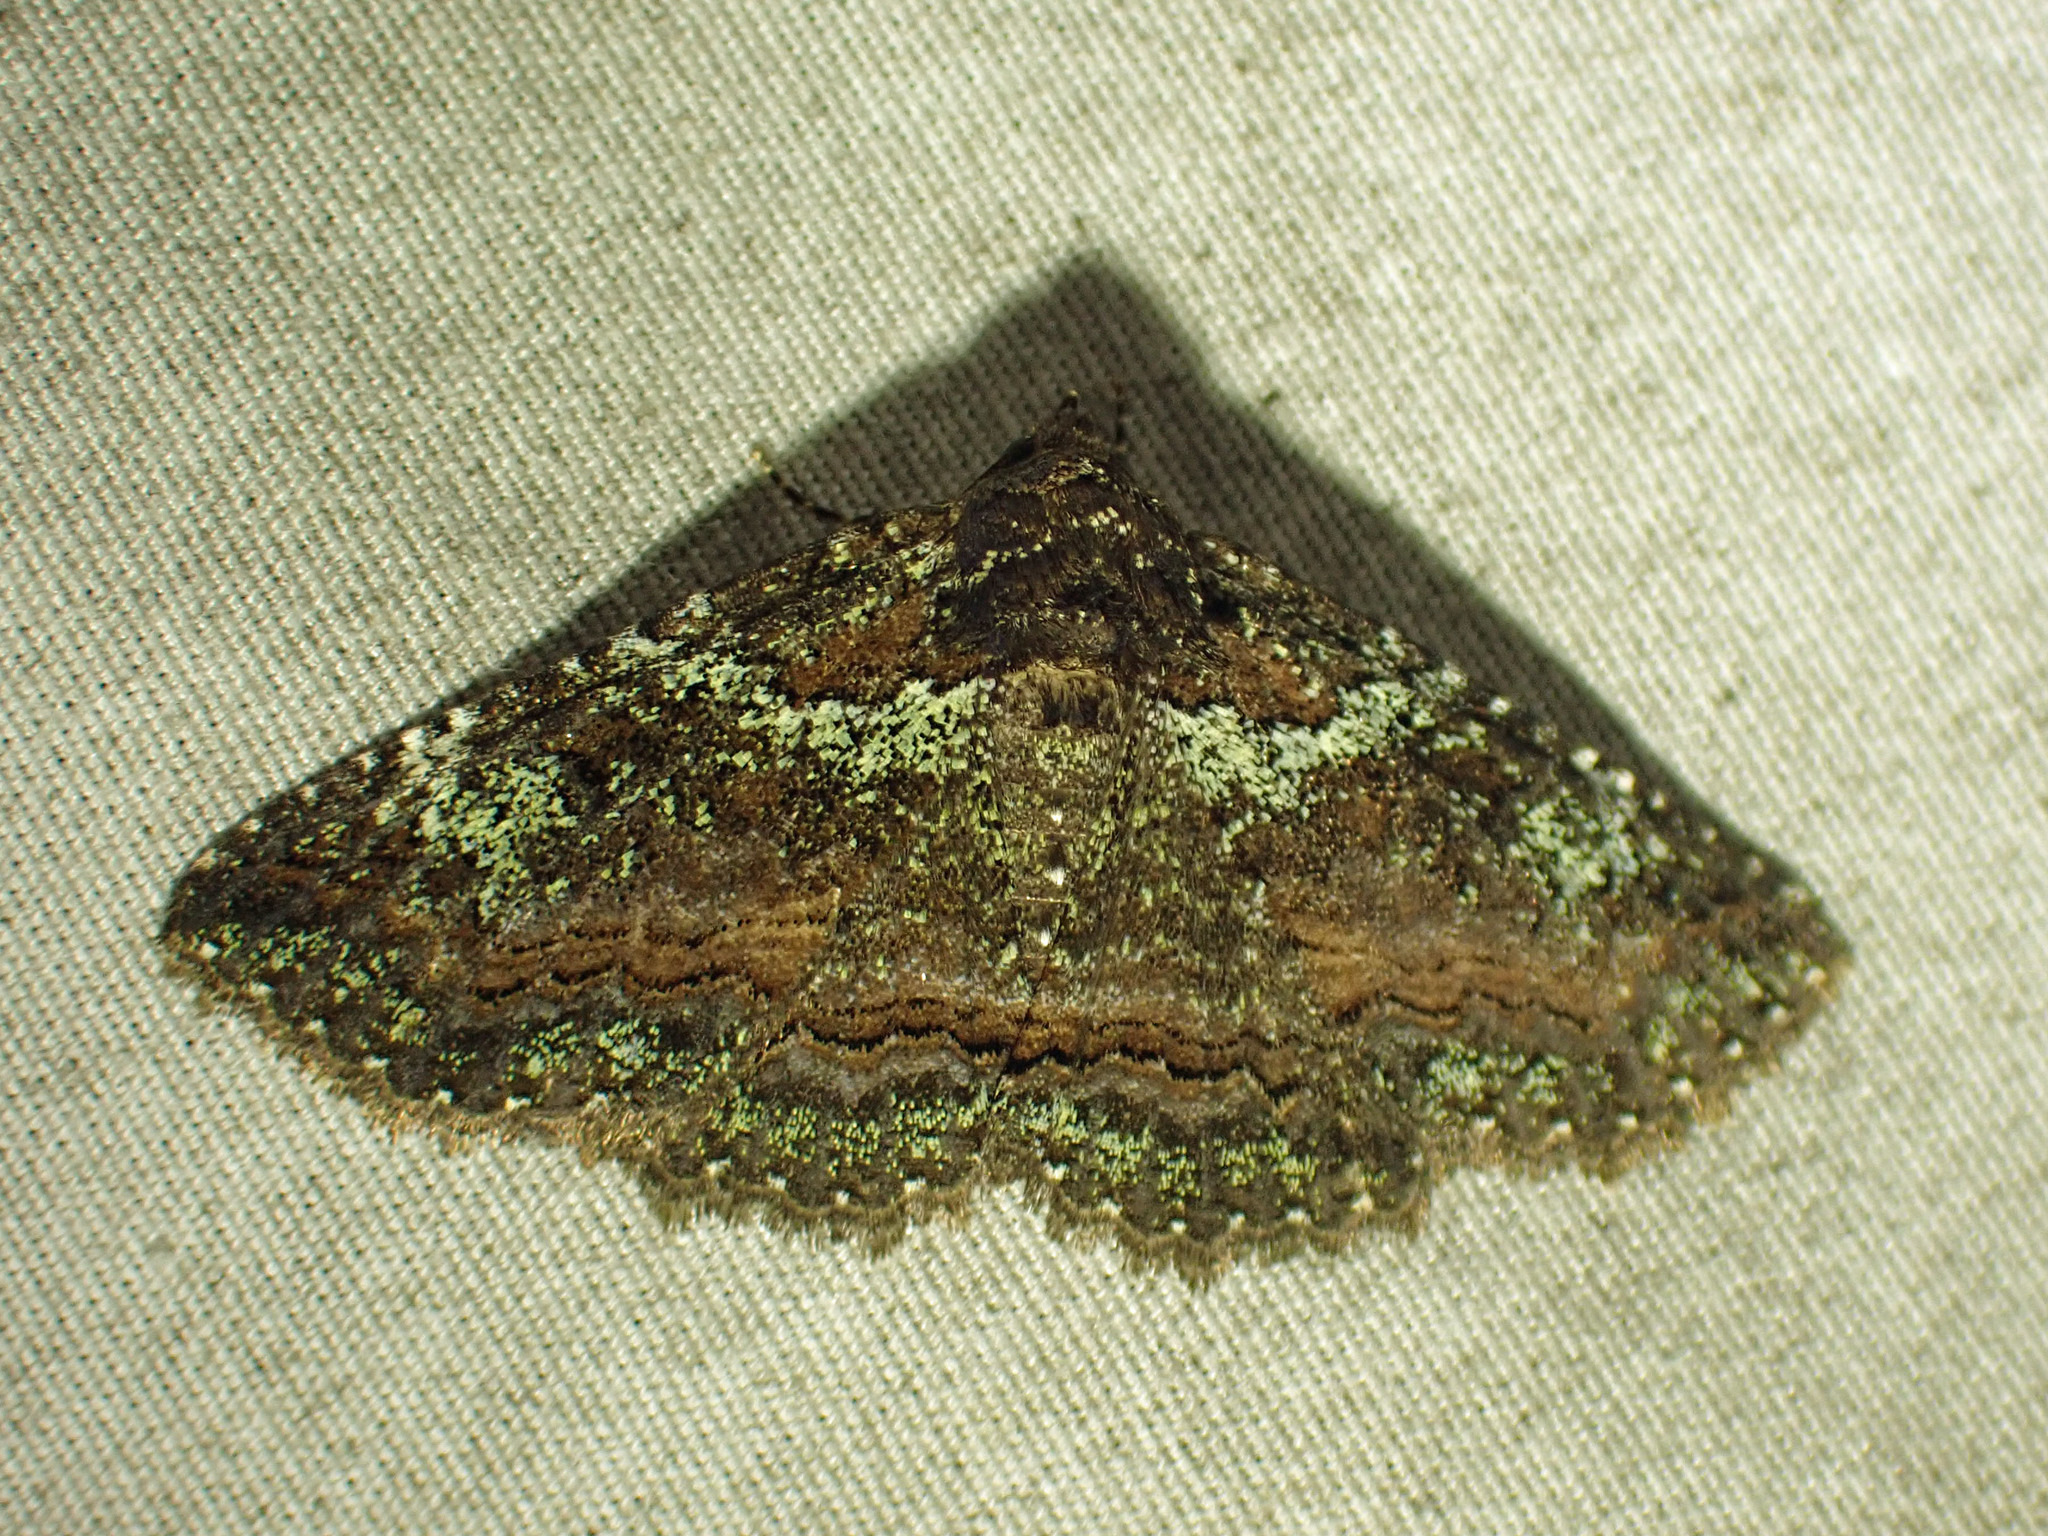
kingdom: Animalia
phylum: Arthropoda
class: Insecta
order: Lepidoptera
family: Erebidae
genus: Zale
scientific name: Zale aeruginosa
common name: Green-dusted zale moth
